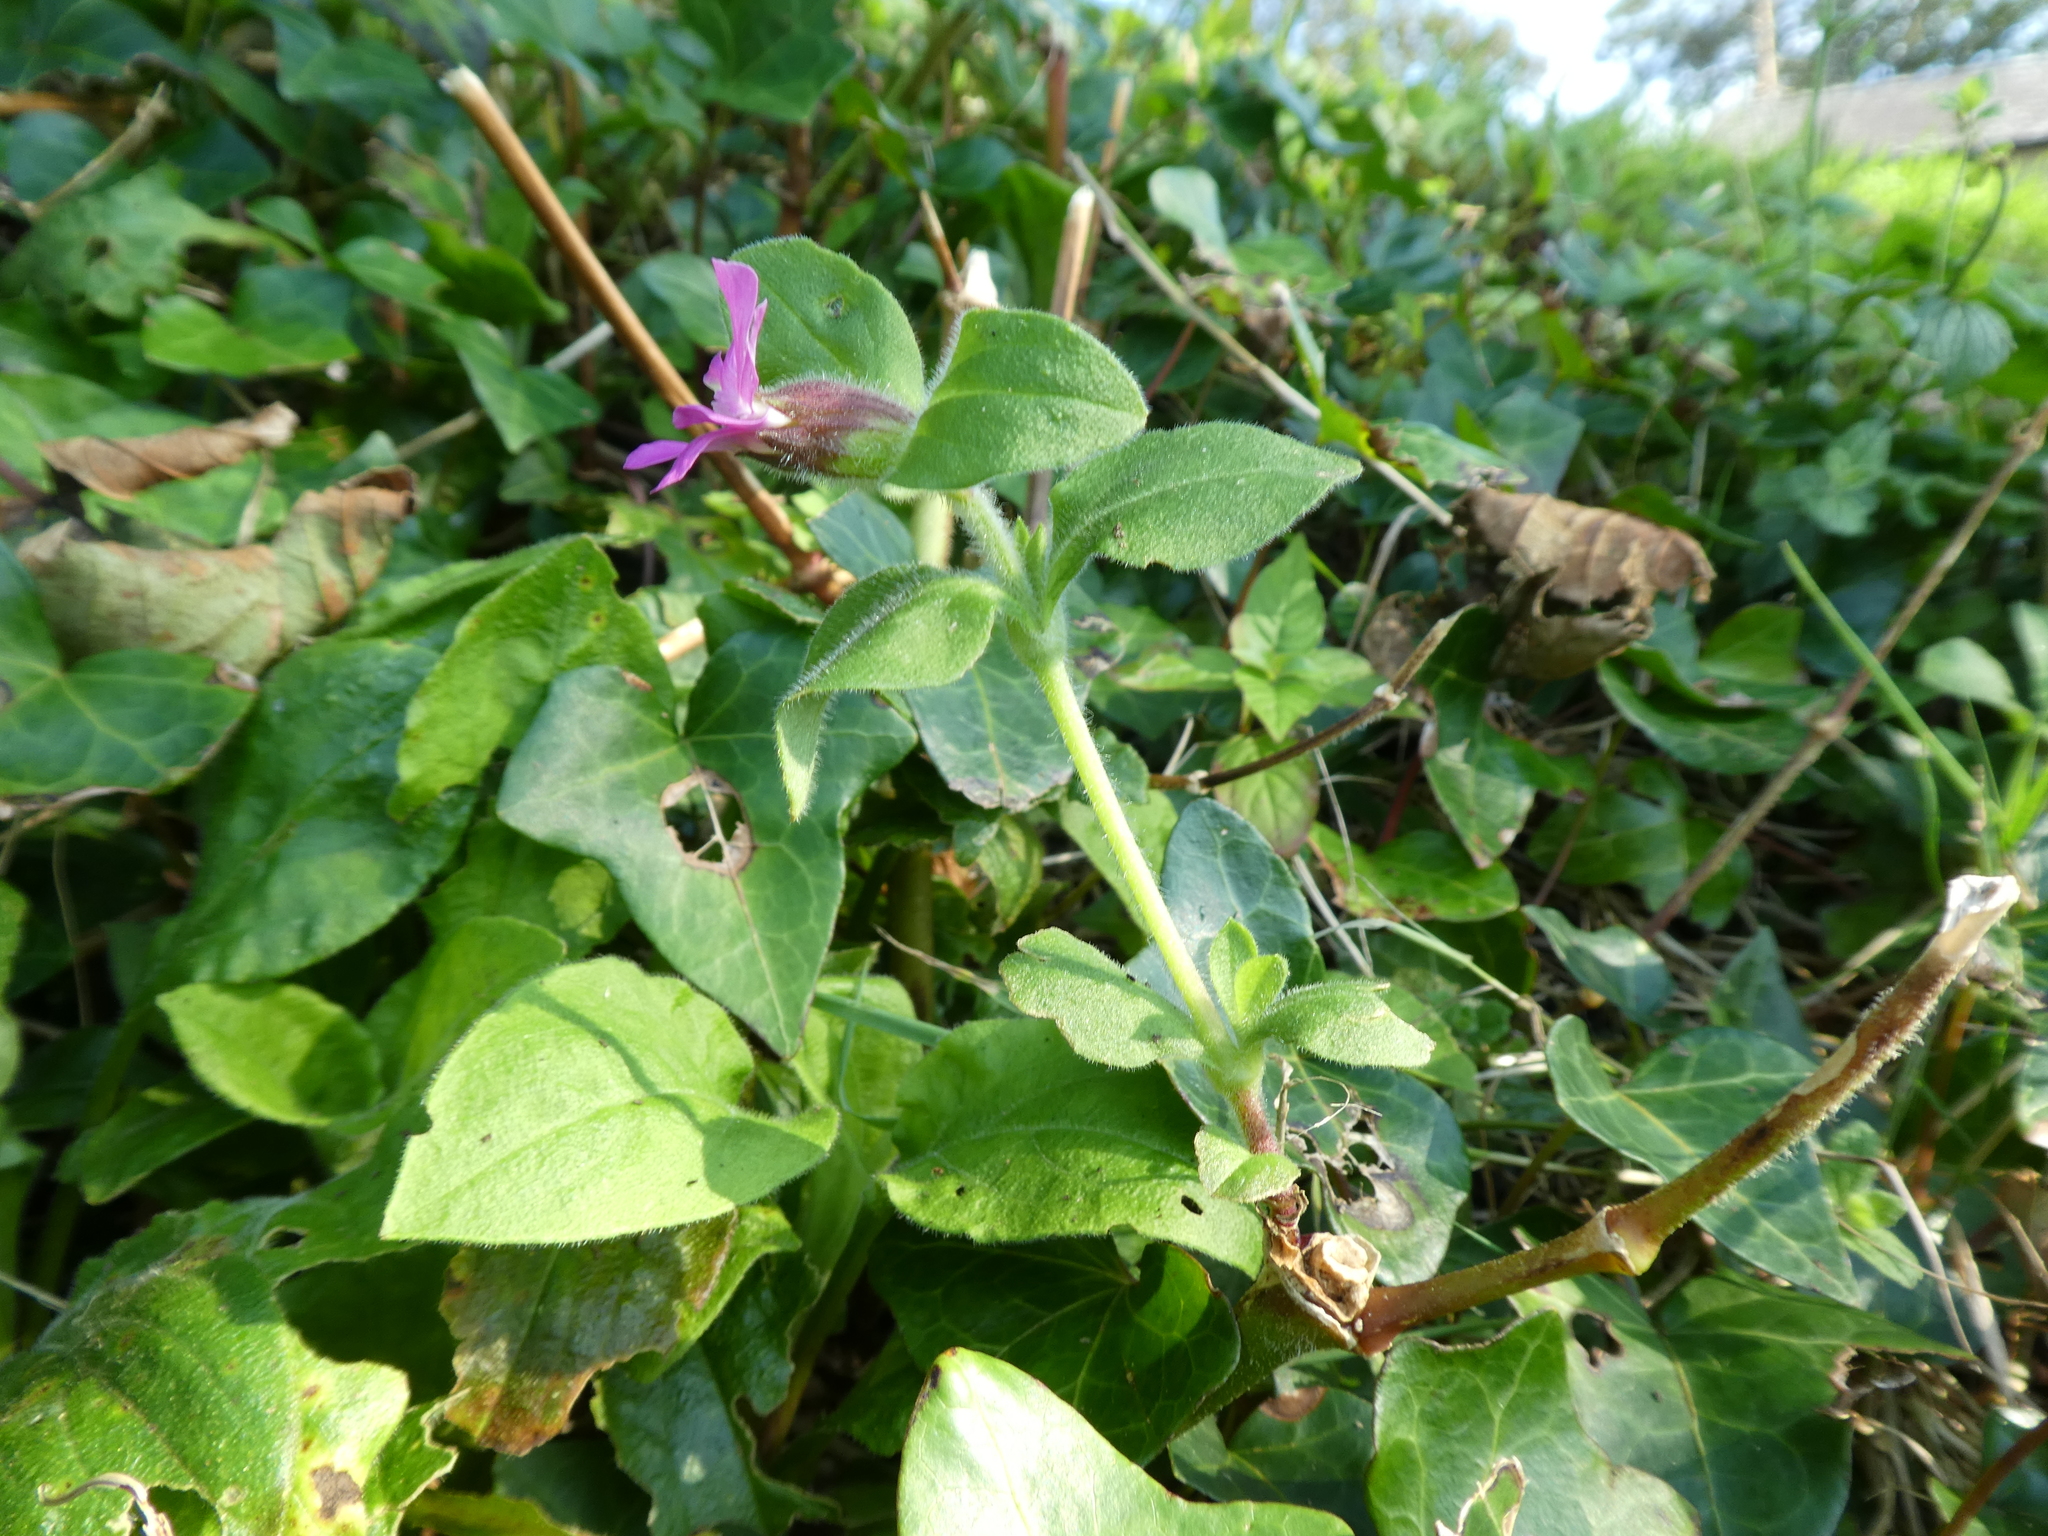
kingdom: Plantae
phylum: Tracheophyta
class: Magnoliopsida
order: Caryophyllales
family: Caryophyllaceae
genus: Silene
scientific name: Silene dioica
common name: Red campion
